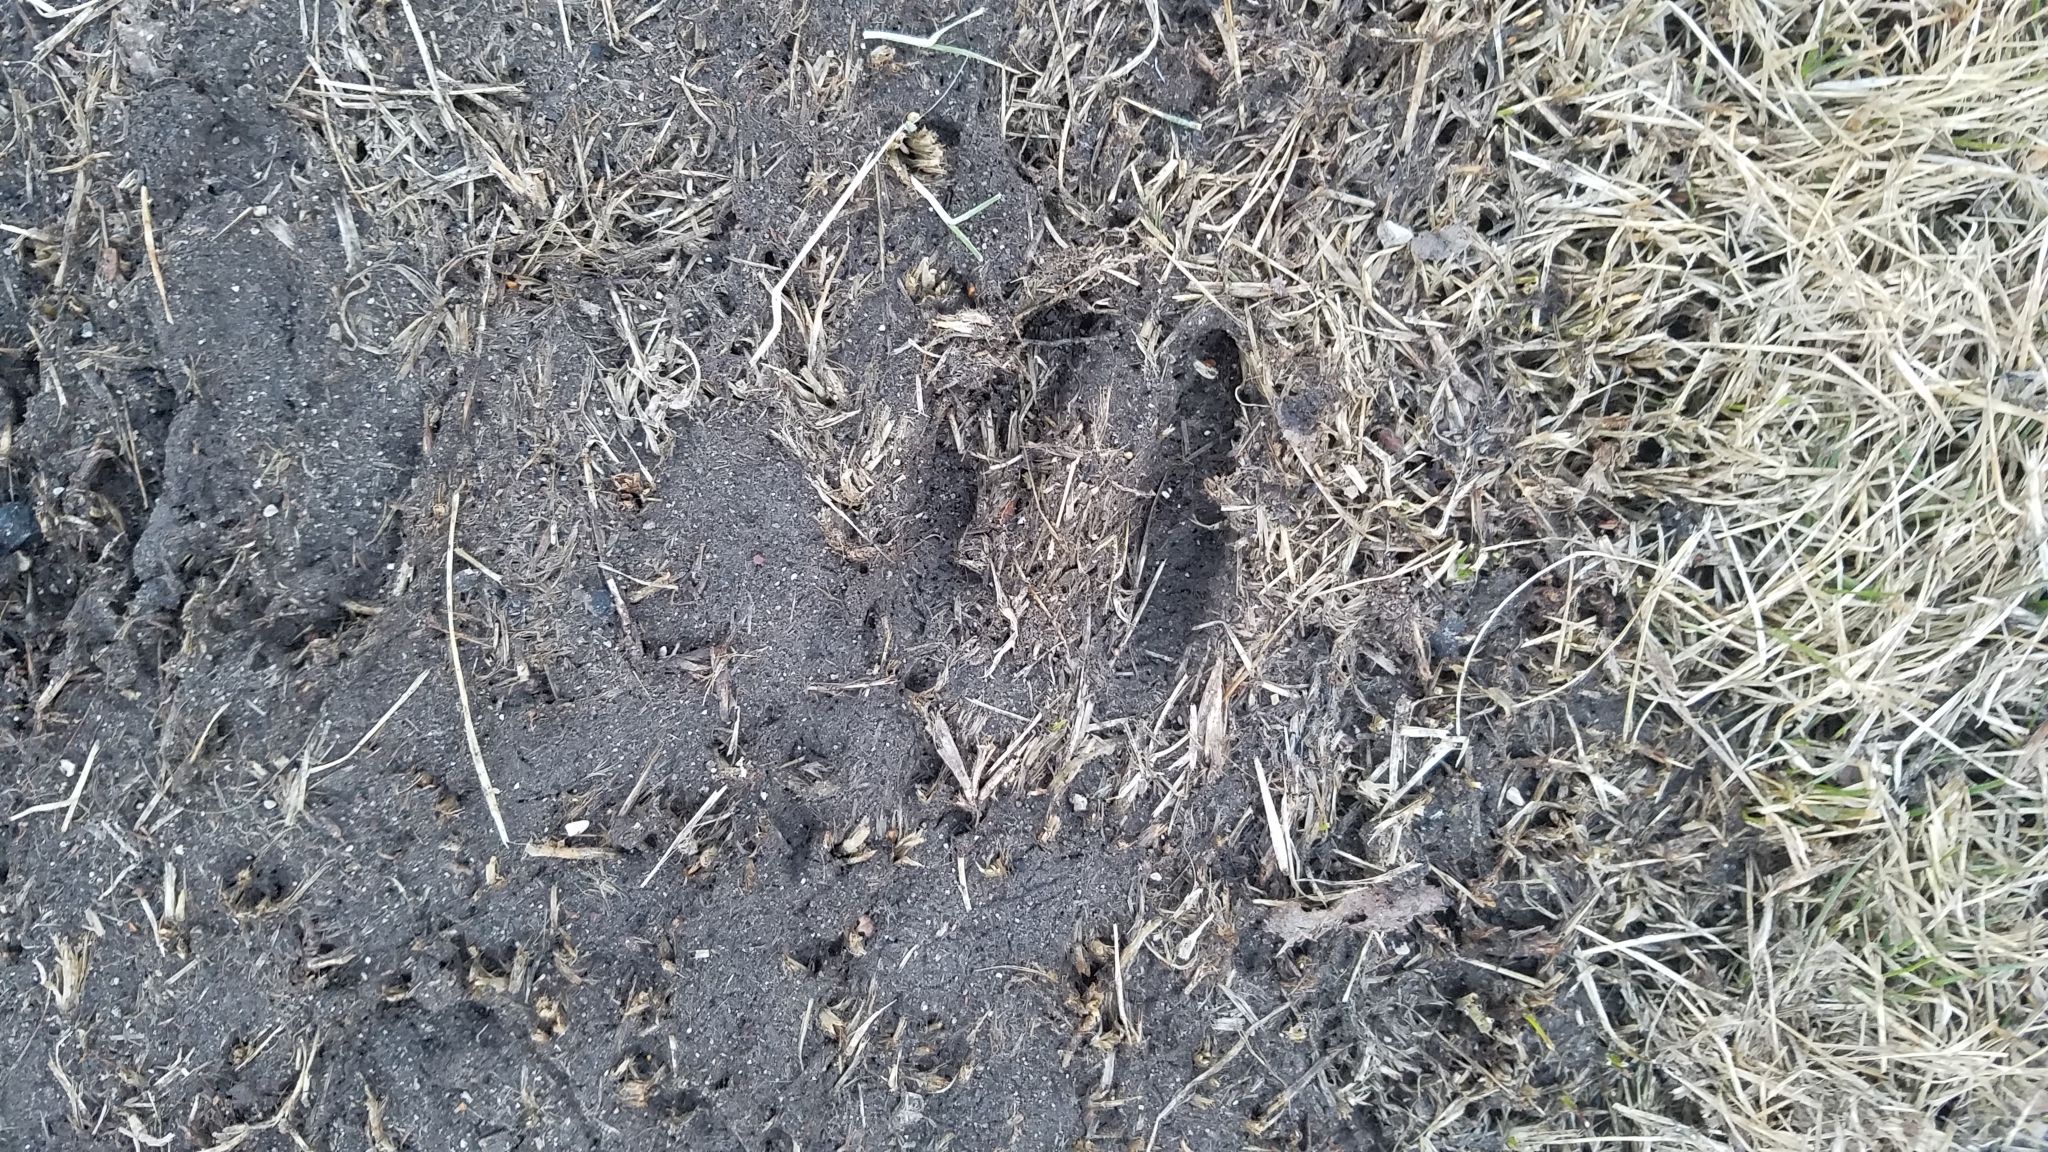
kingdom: Animalia
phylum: Chordata
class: Mammalia
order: Artiodactyla
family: Cervidae
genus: Odocoileus
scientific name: Odocoileus virginianus
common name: White-tailed deer
